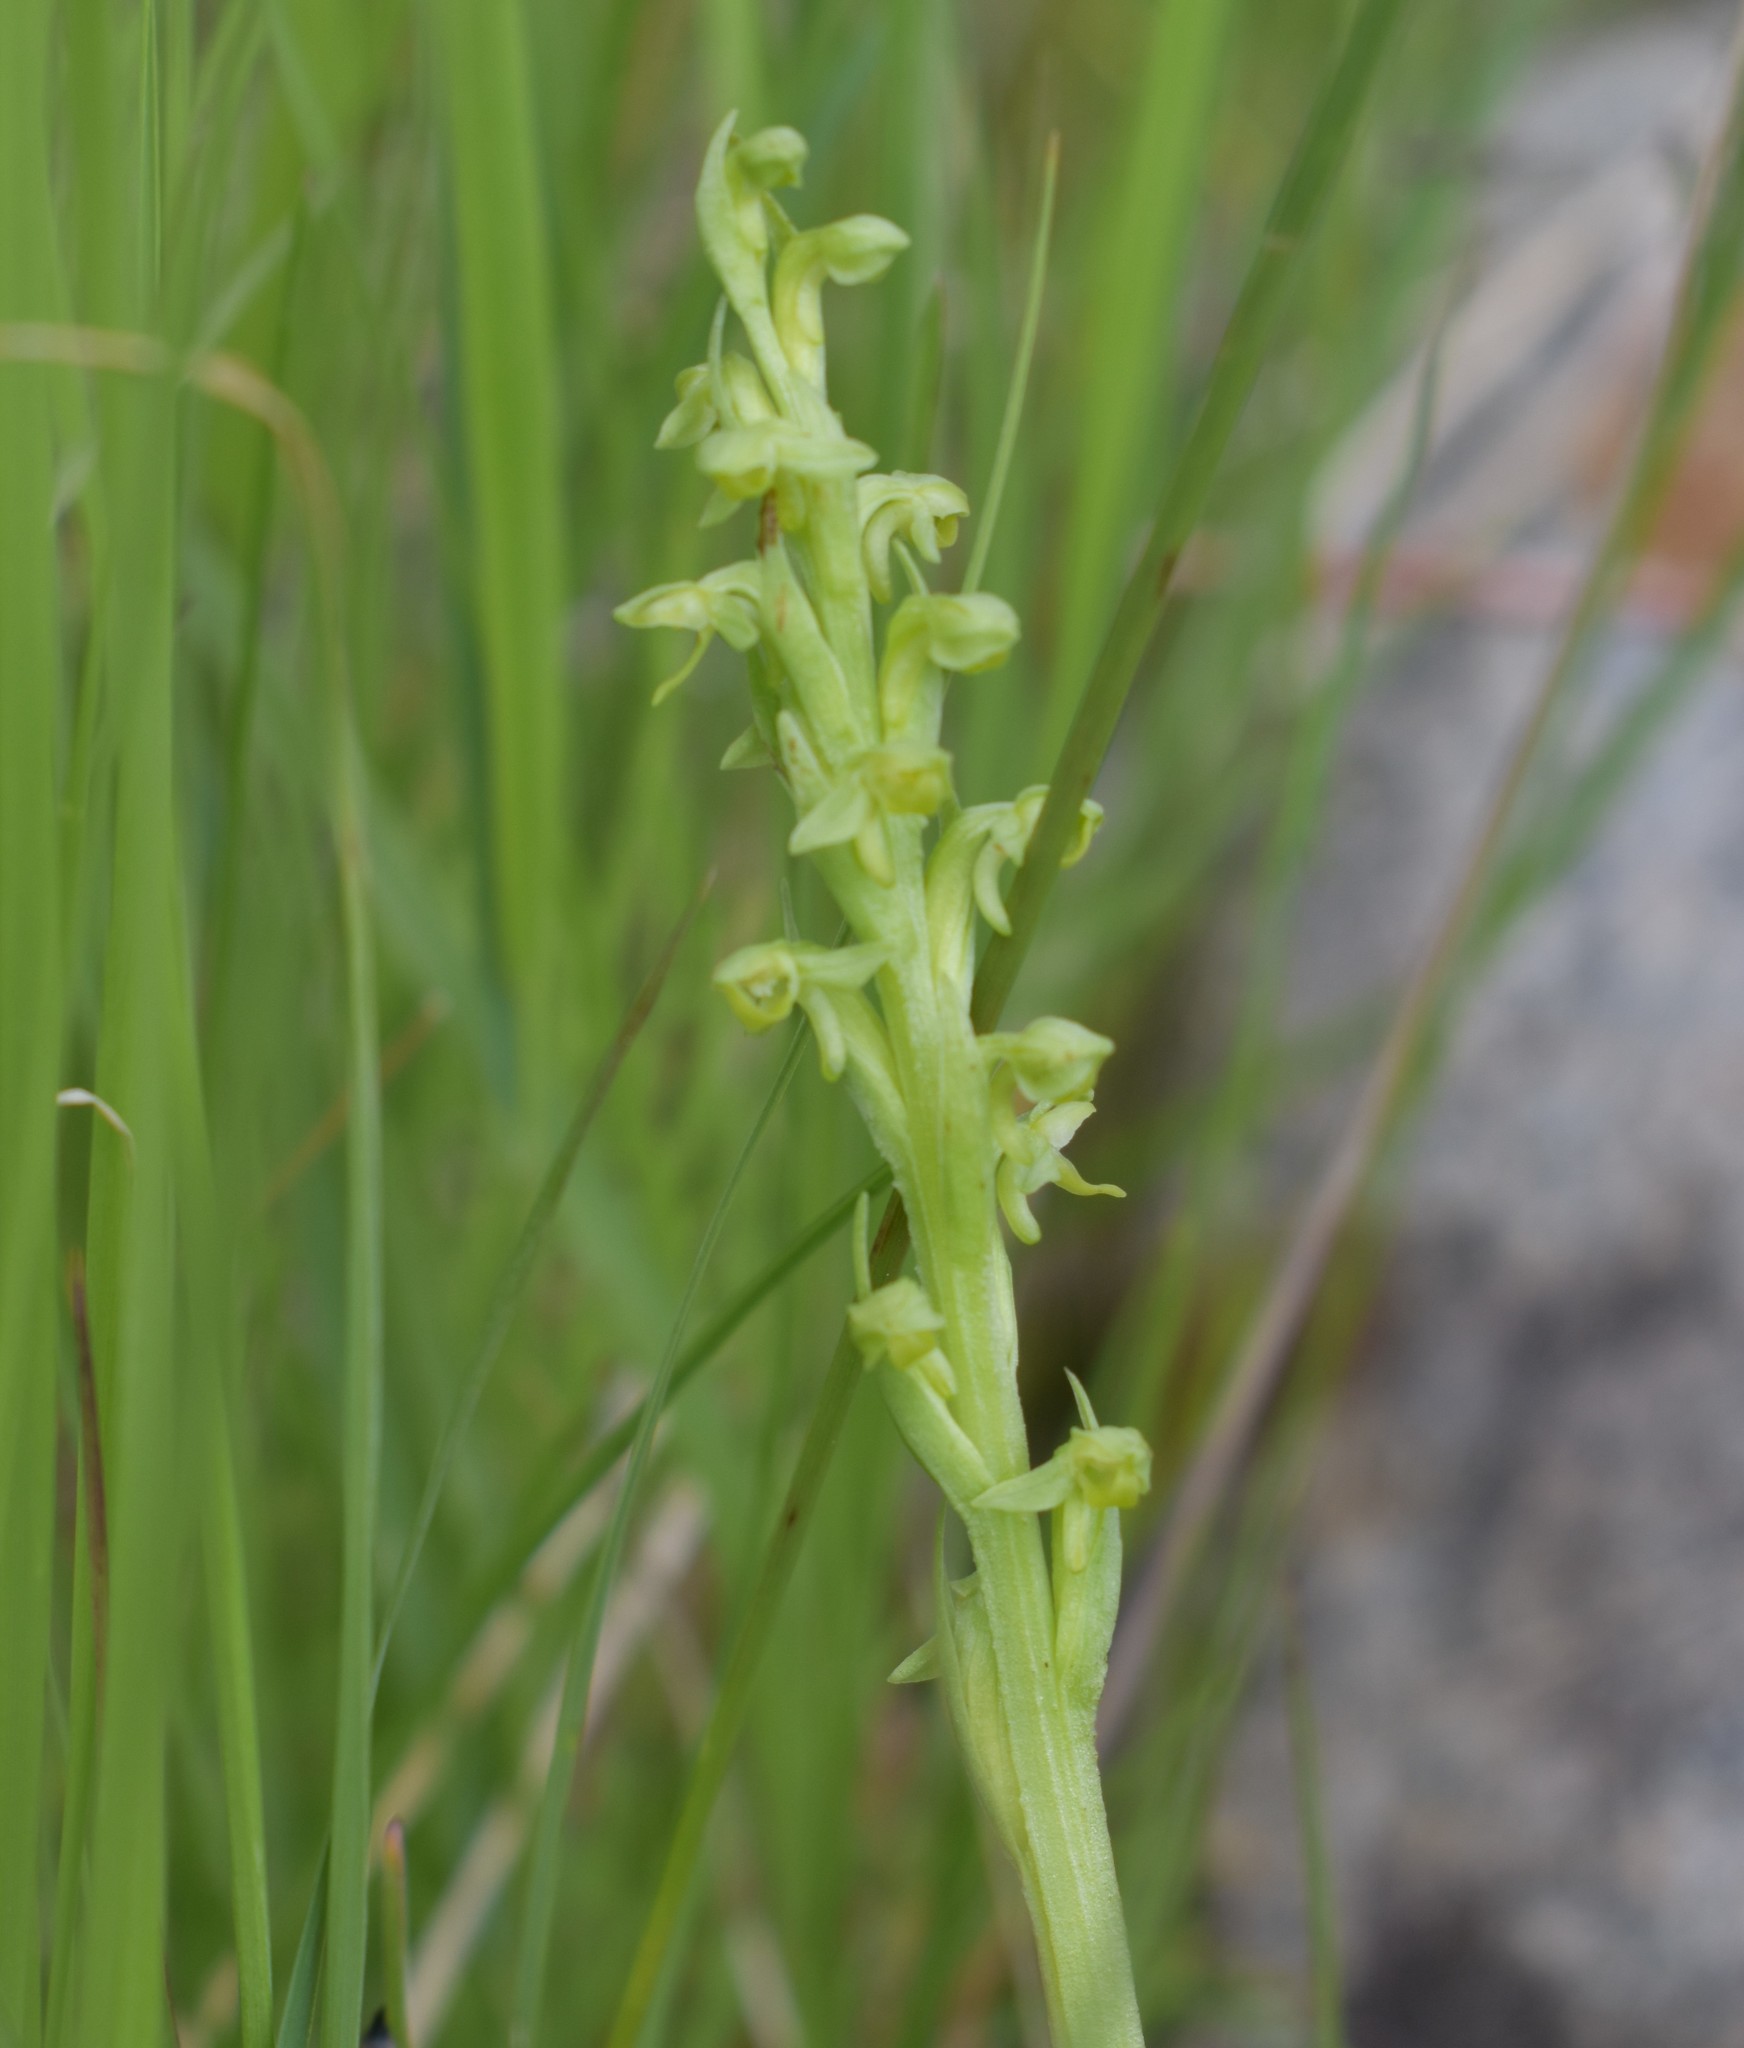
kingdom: Plantae
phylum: Tracheophyta
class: Liliopsida
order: Asparagales
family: Orchidaceae
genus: Platanthera
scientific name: Platanthera aquilonis
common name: Northern green orchid
